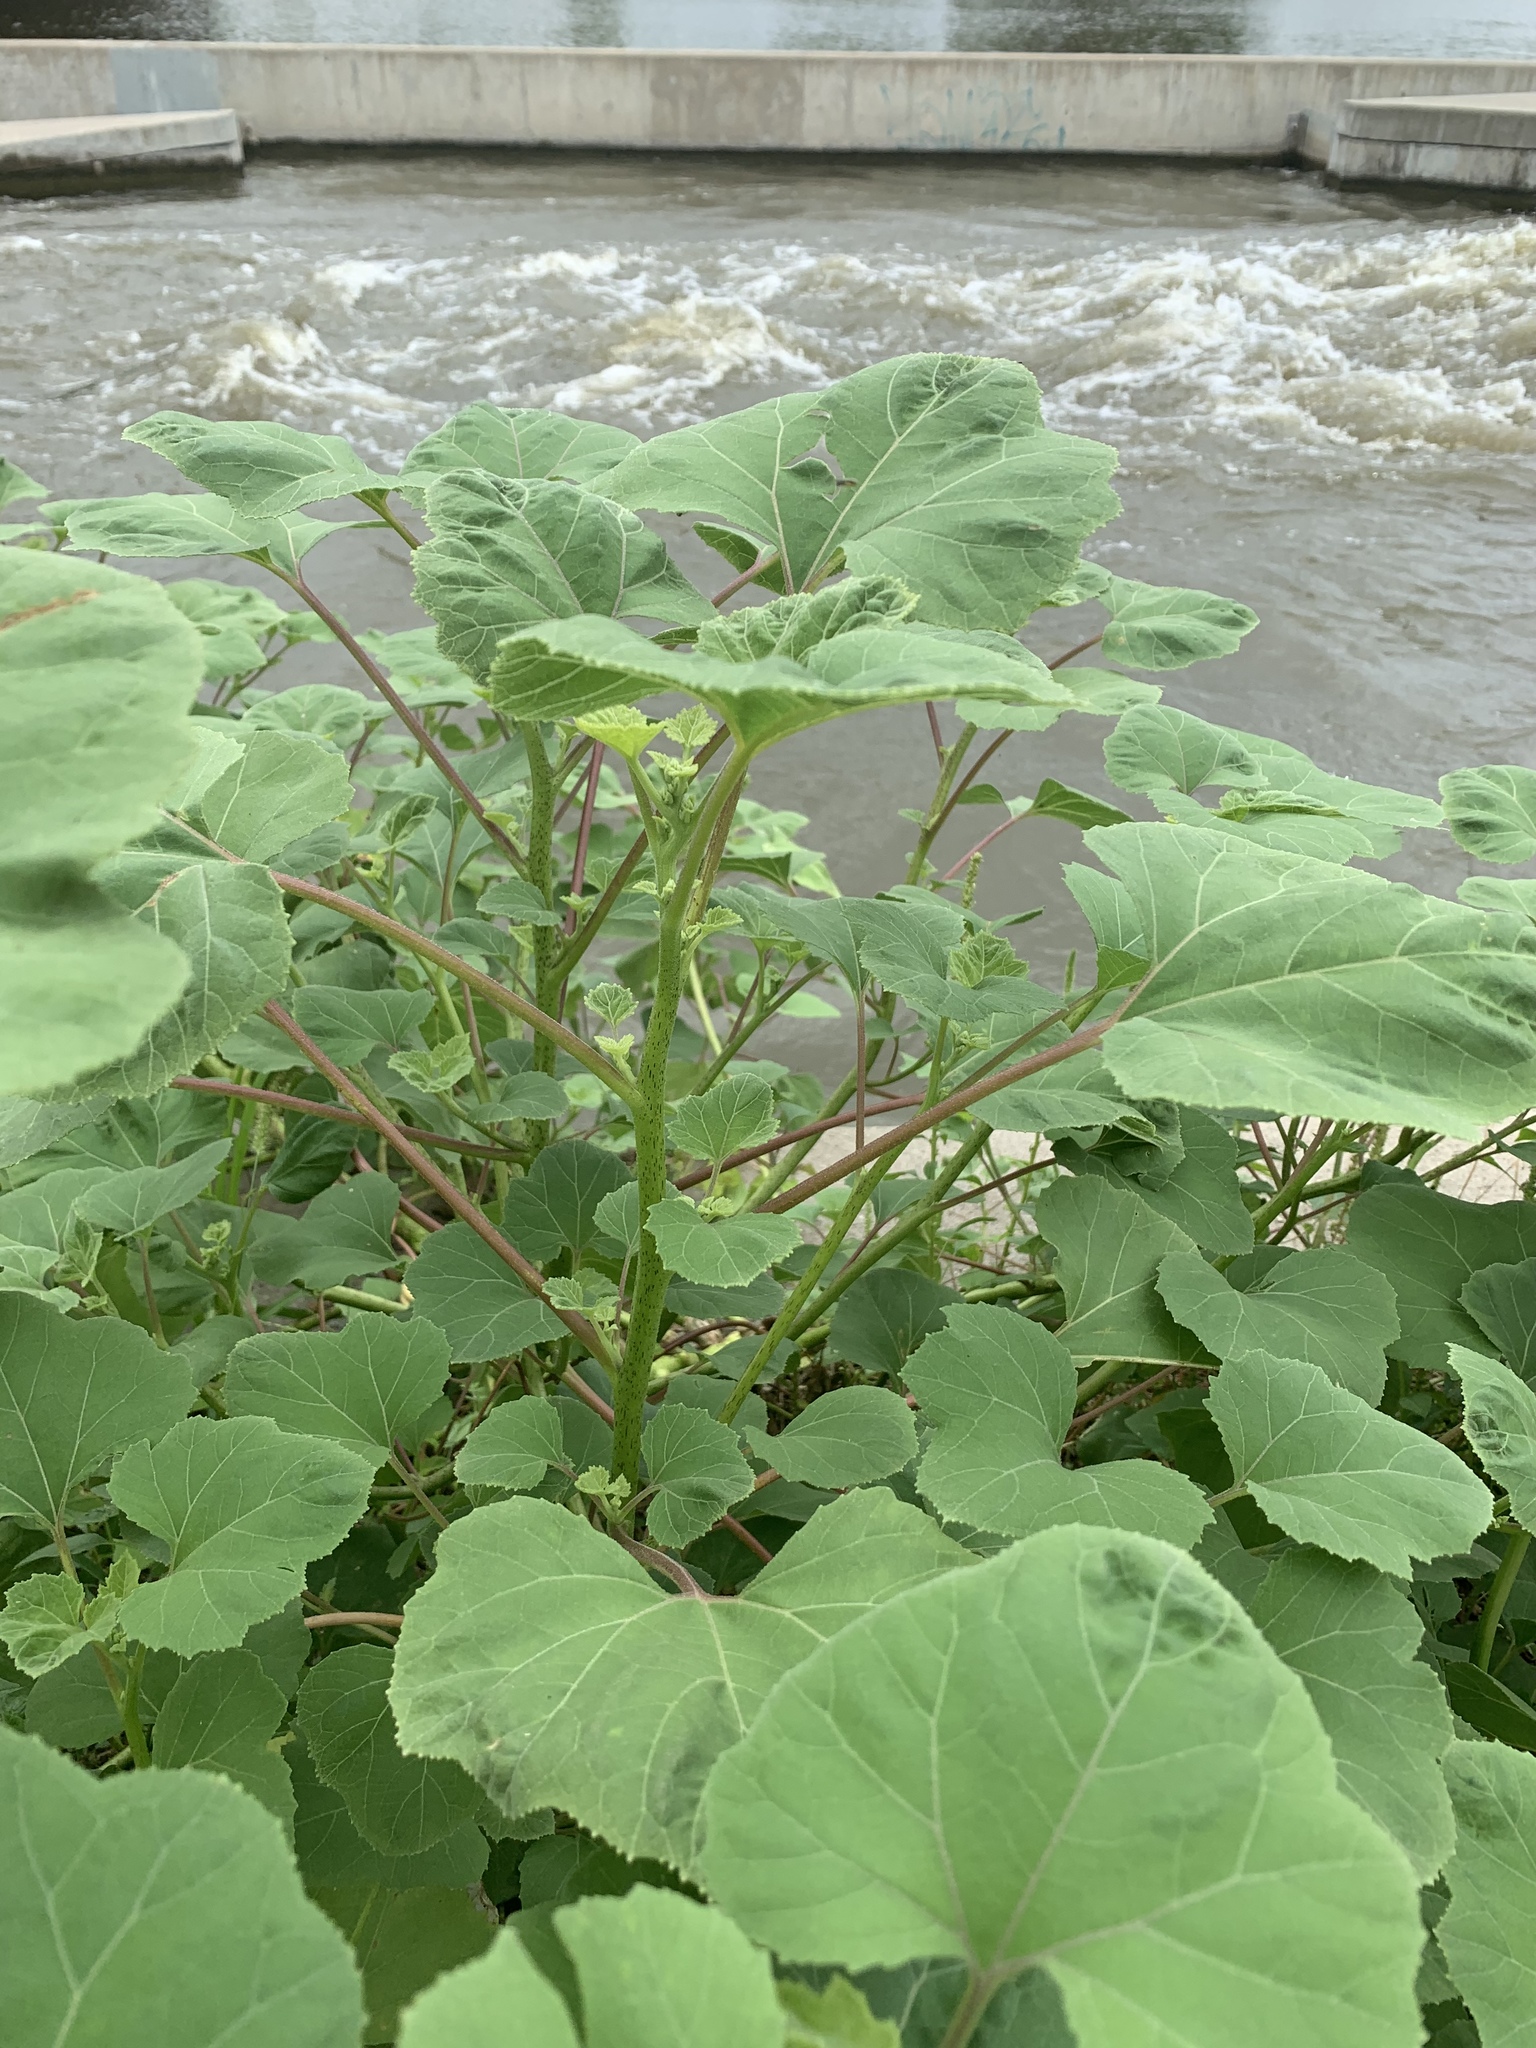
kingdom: Plantae
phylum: Tracheophyta
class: Magnoliopsida
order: Asterales
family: Asteraceae
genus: Xanthium
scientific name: Xanthium strumarium
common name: Rough cocklebur
